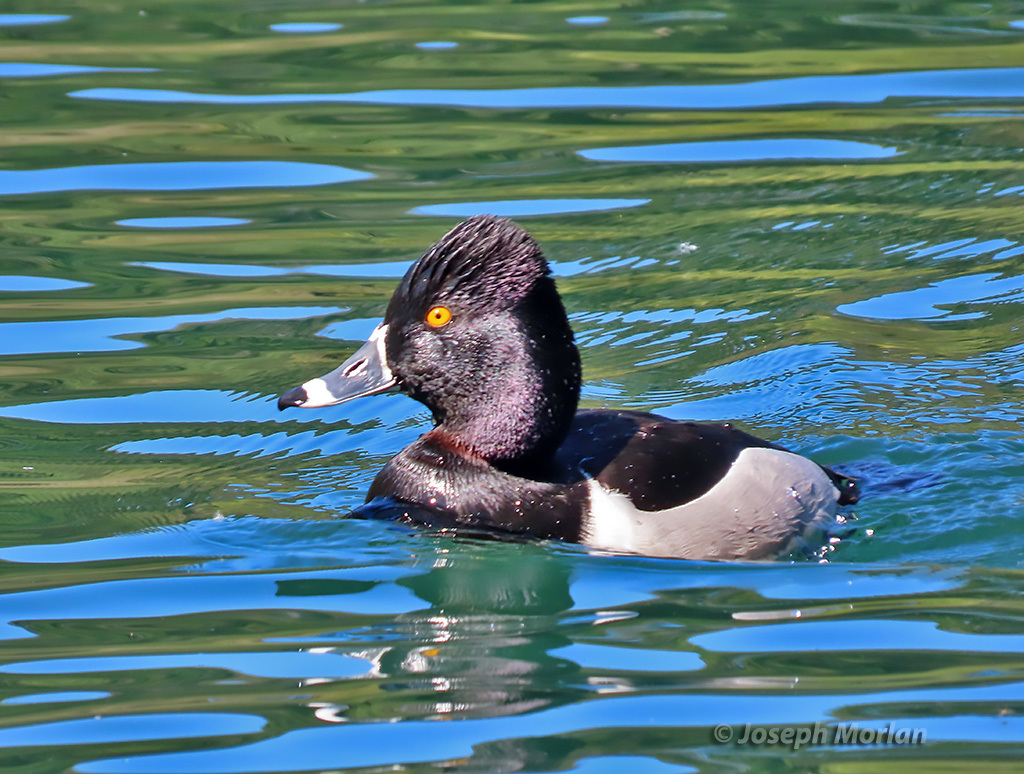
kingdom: Animalia
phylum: Chordata
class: Aves
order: Anseriformes
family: Anatidae
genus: Aythya
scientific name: Aythya collaris
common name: Ring-necked duck
